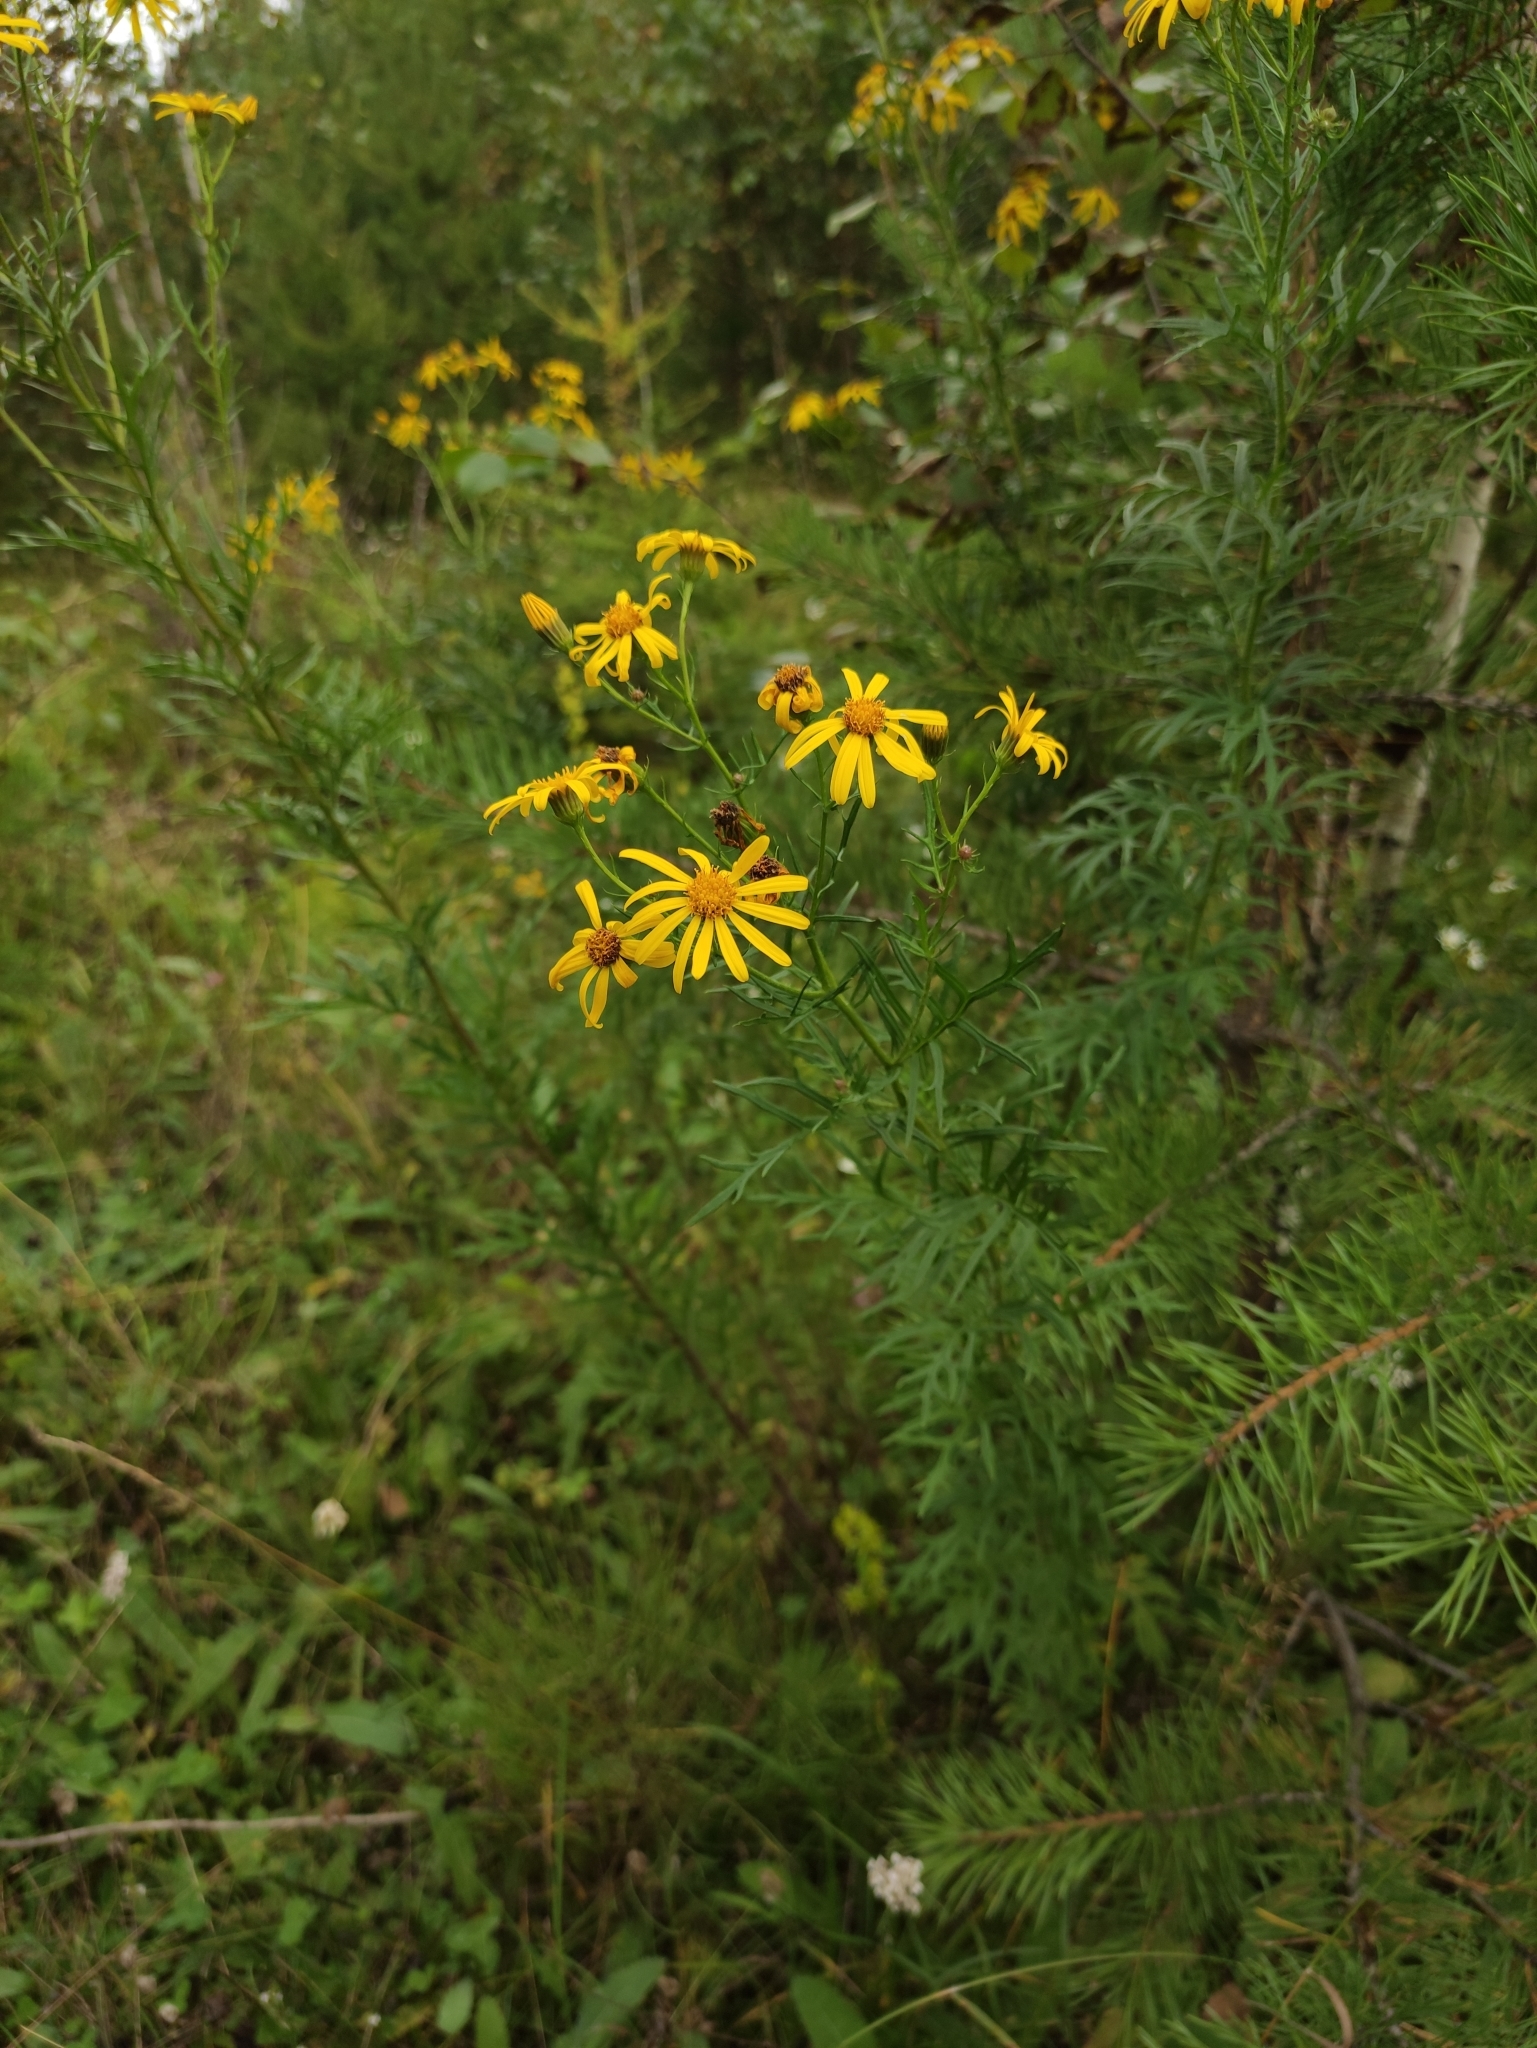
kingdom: Plantae
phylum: Tracheophyta
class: Magnoliopsida
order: Asterales
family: Asteraceae
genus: Jacobaea
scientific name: Jacobaea erucifolia
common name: Hoary ragwort
